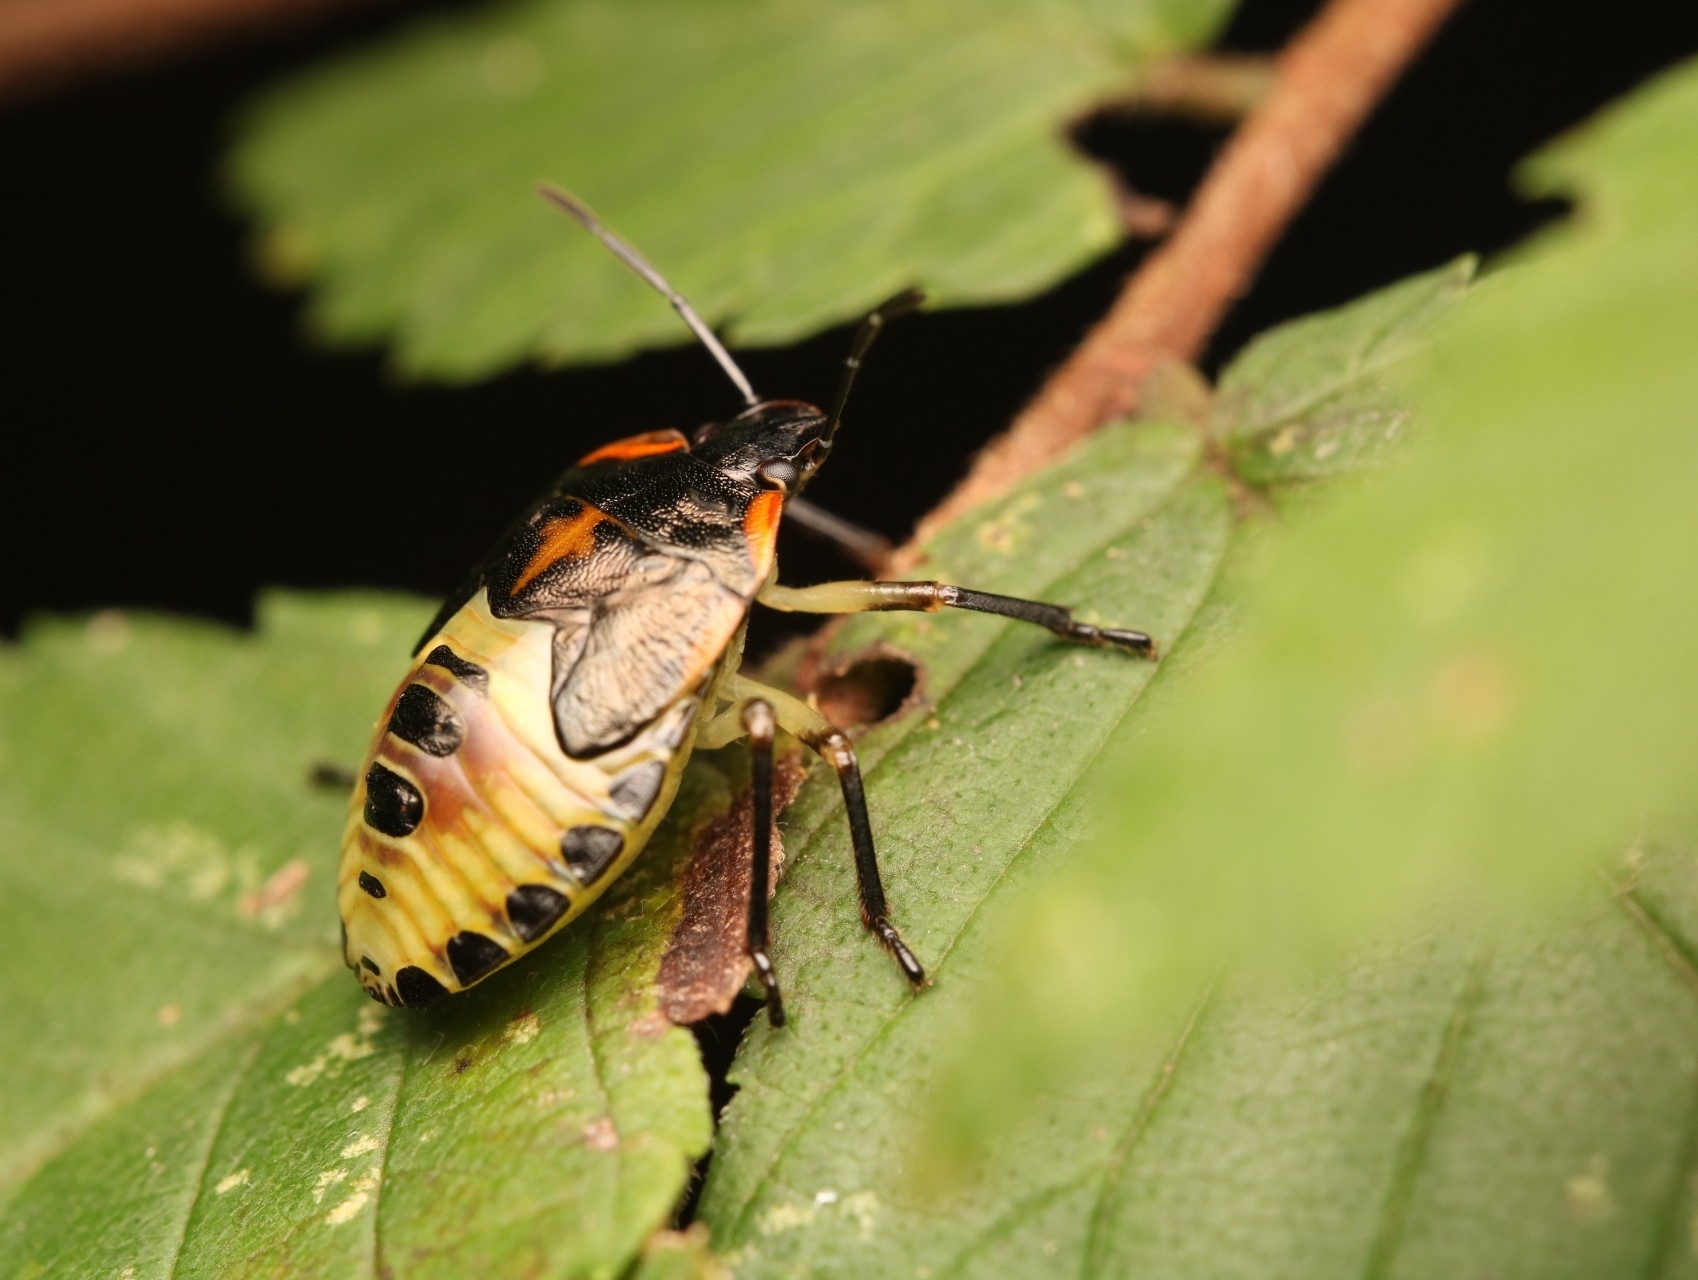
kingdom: Animalia
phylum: Arthropoda
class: Insecta
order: Hemiptera
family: Pentatomidae
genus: Chinavia
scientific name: Chinavia hilaris
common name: Green stink bug
